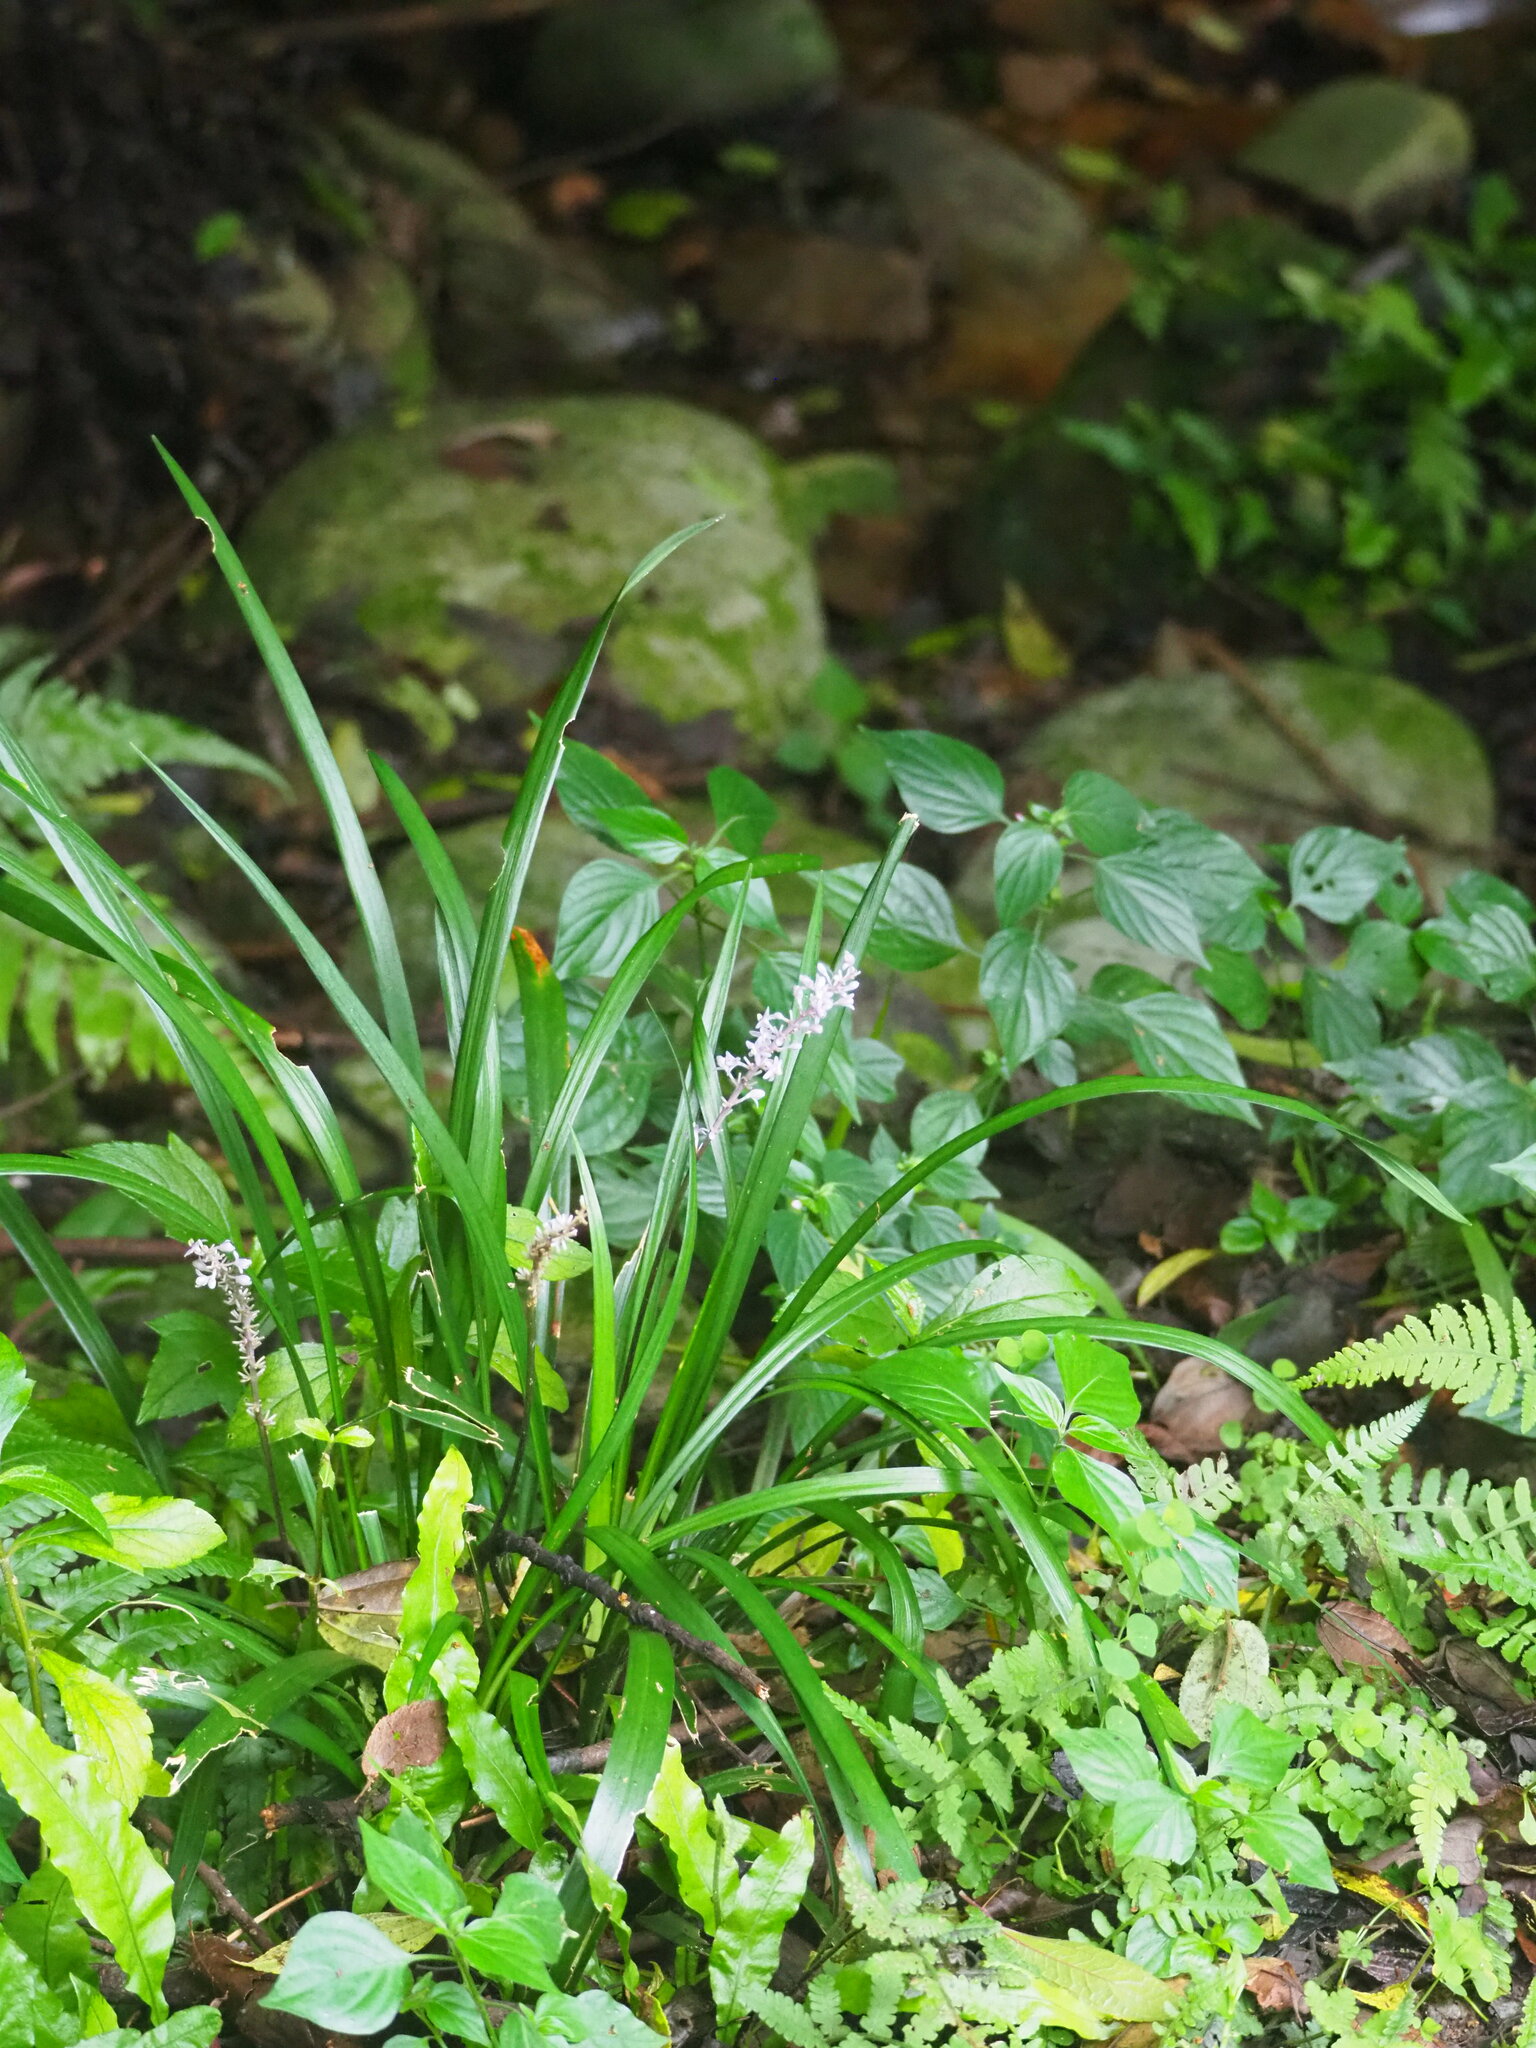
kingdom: Plantae
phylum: Tracheophyta
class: Liliopsida
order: Asparagales
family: Asparagaceae
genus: Liriope
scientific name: Liriope muscari
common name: Big blue lilyturf
